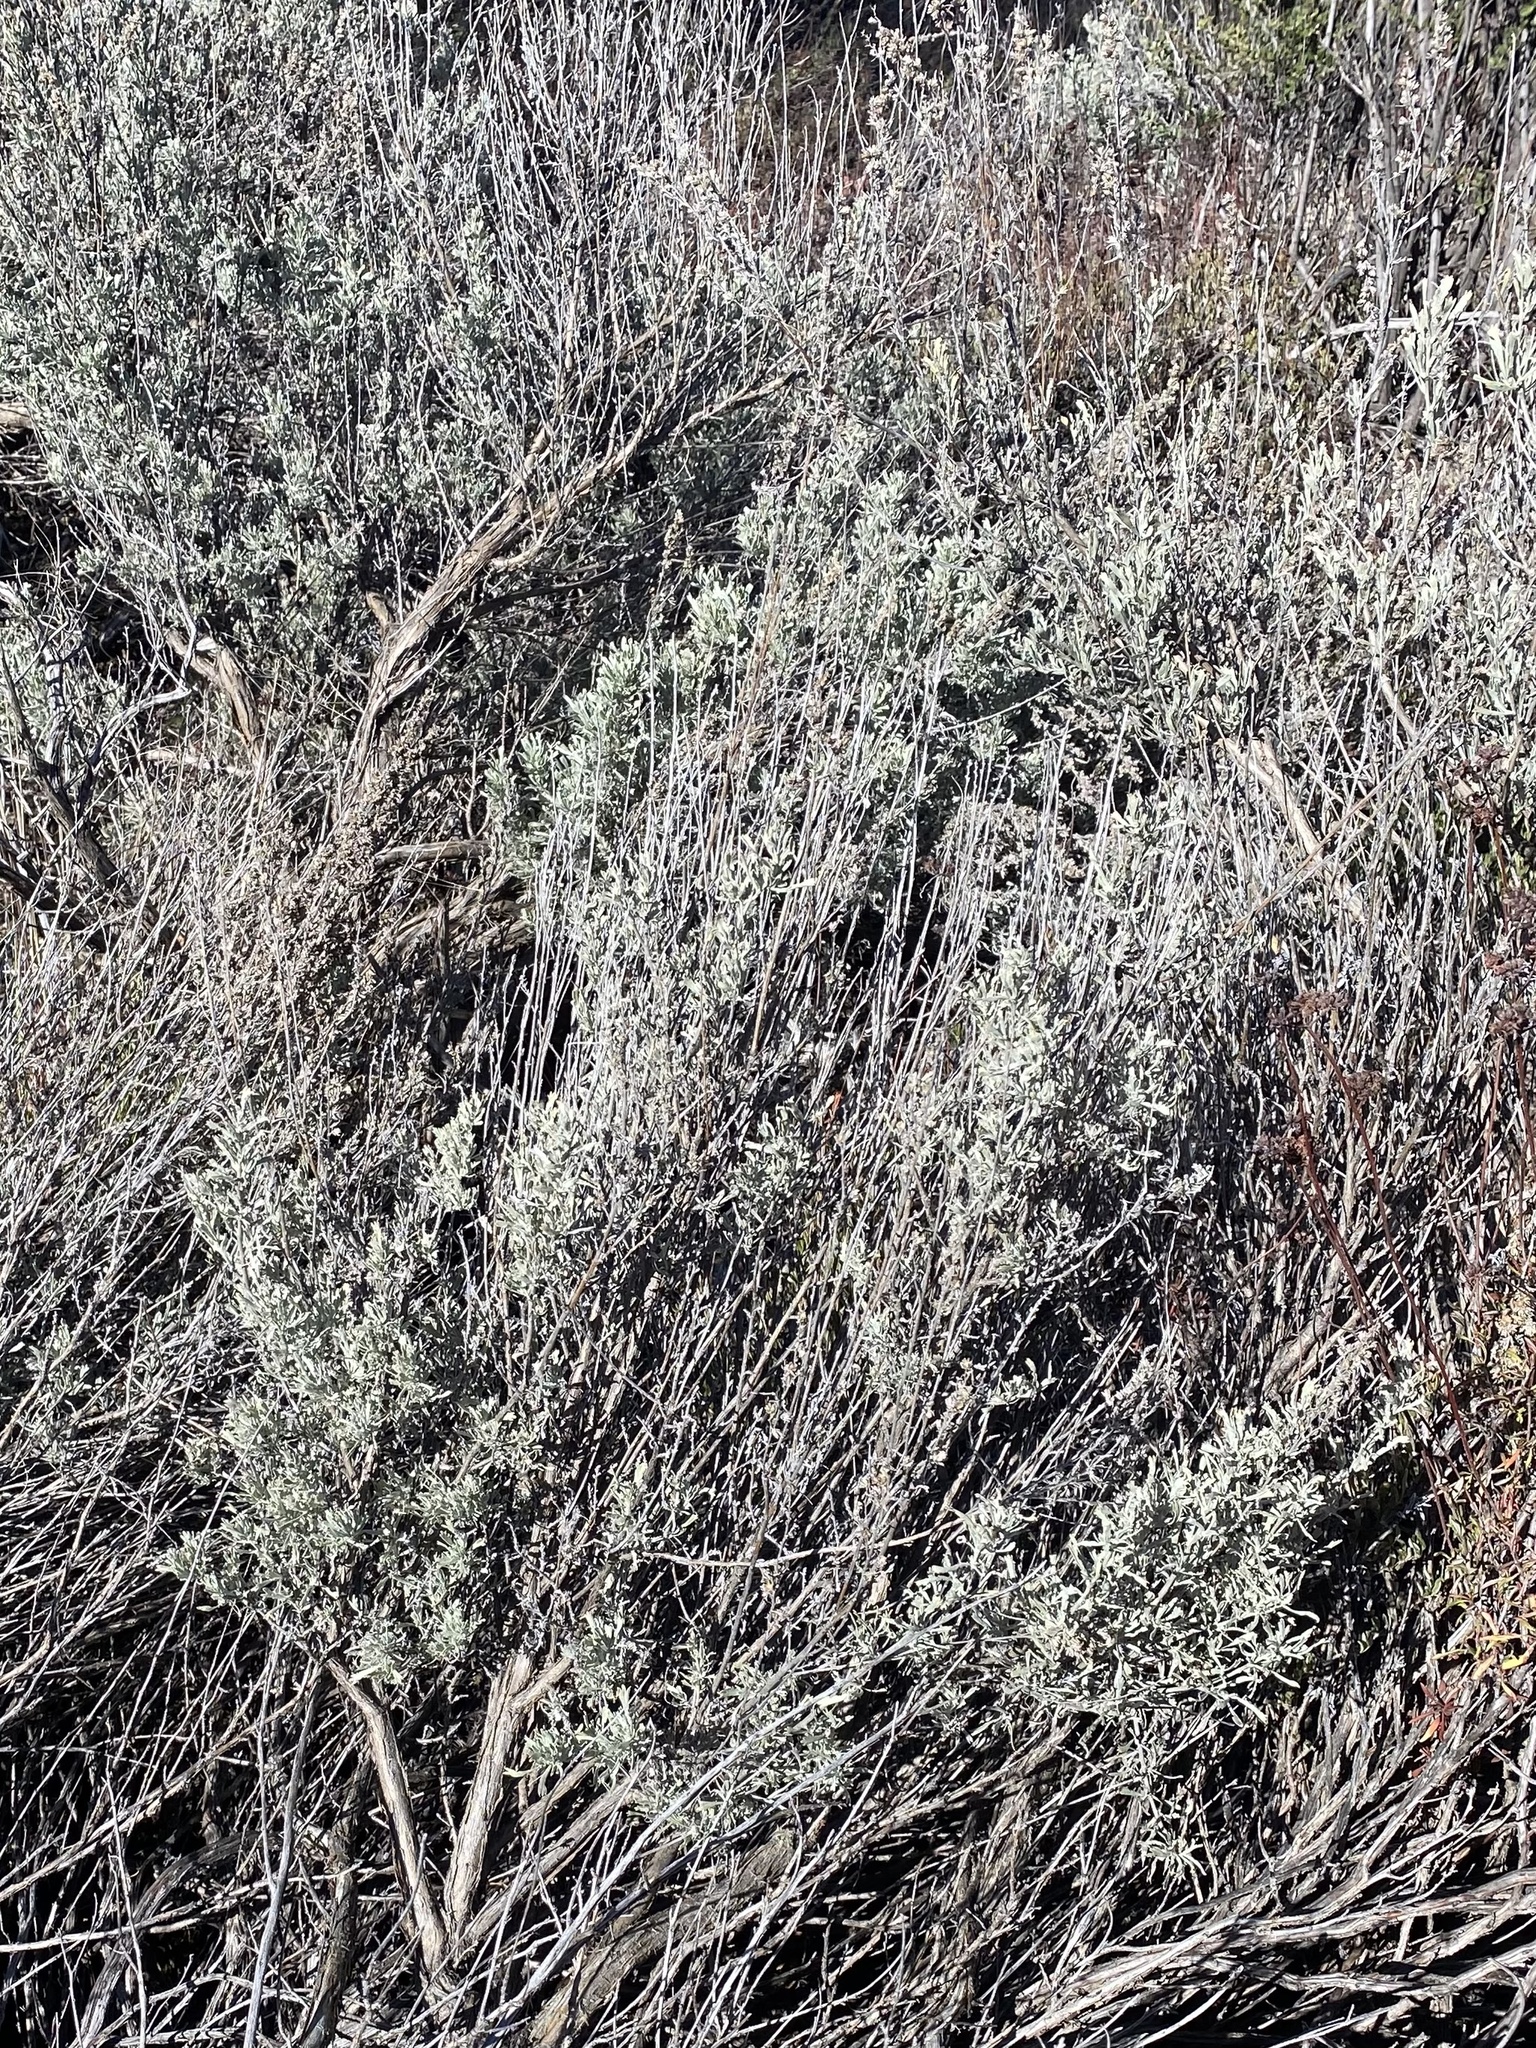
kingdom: Plantae
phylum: Tracheophyta
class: Magnoliopsida
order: Asterales
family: Asteraceae
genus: Artemisia
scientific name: Artemisia tridentata
